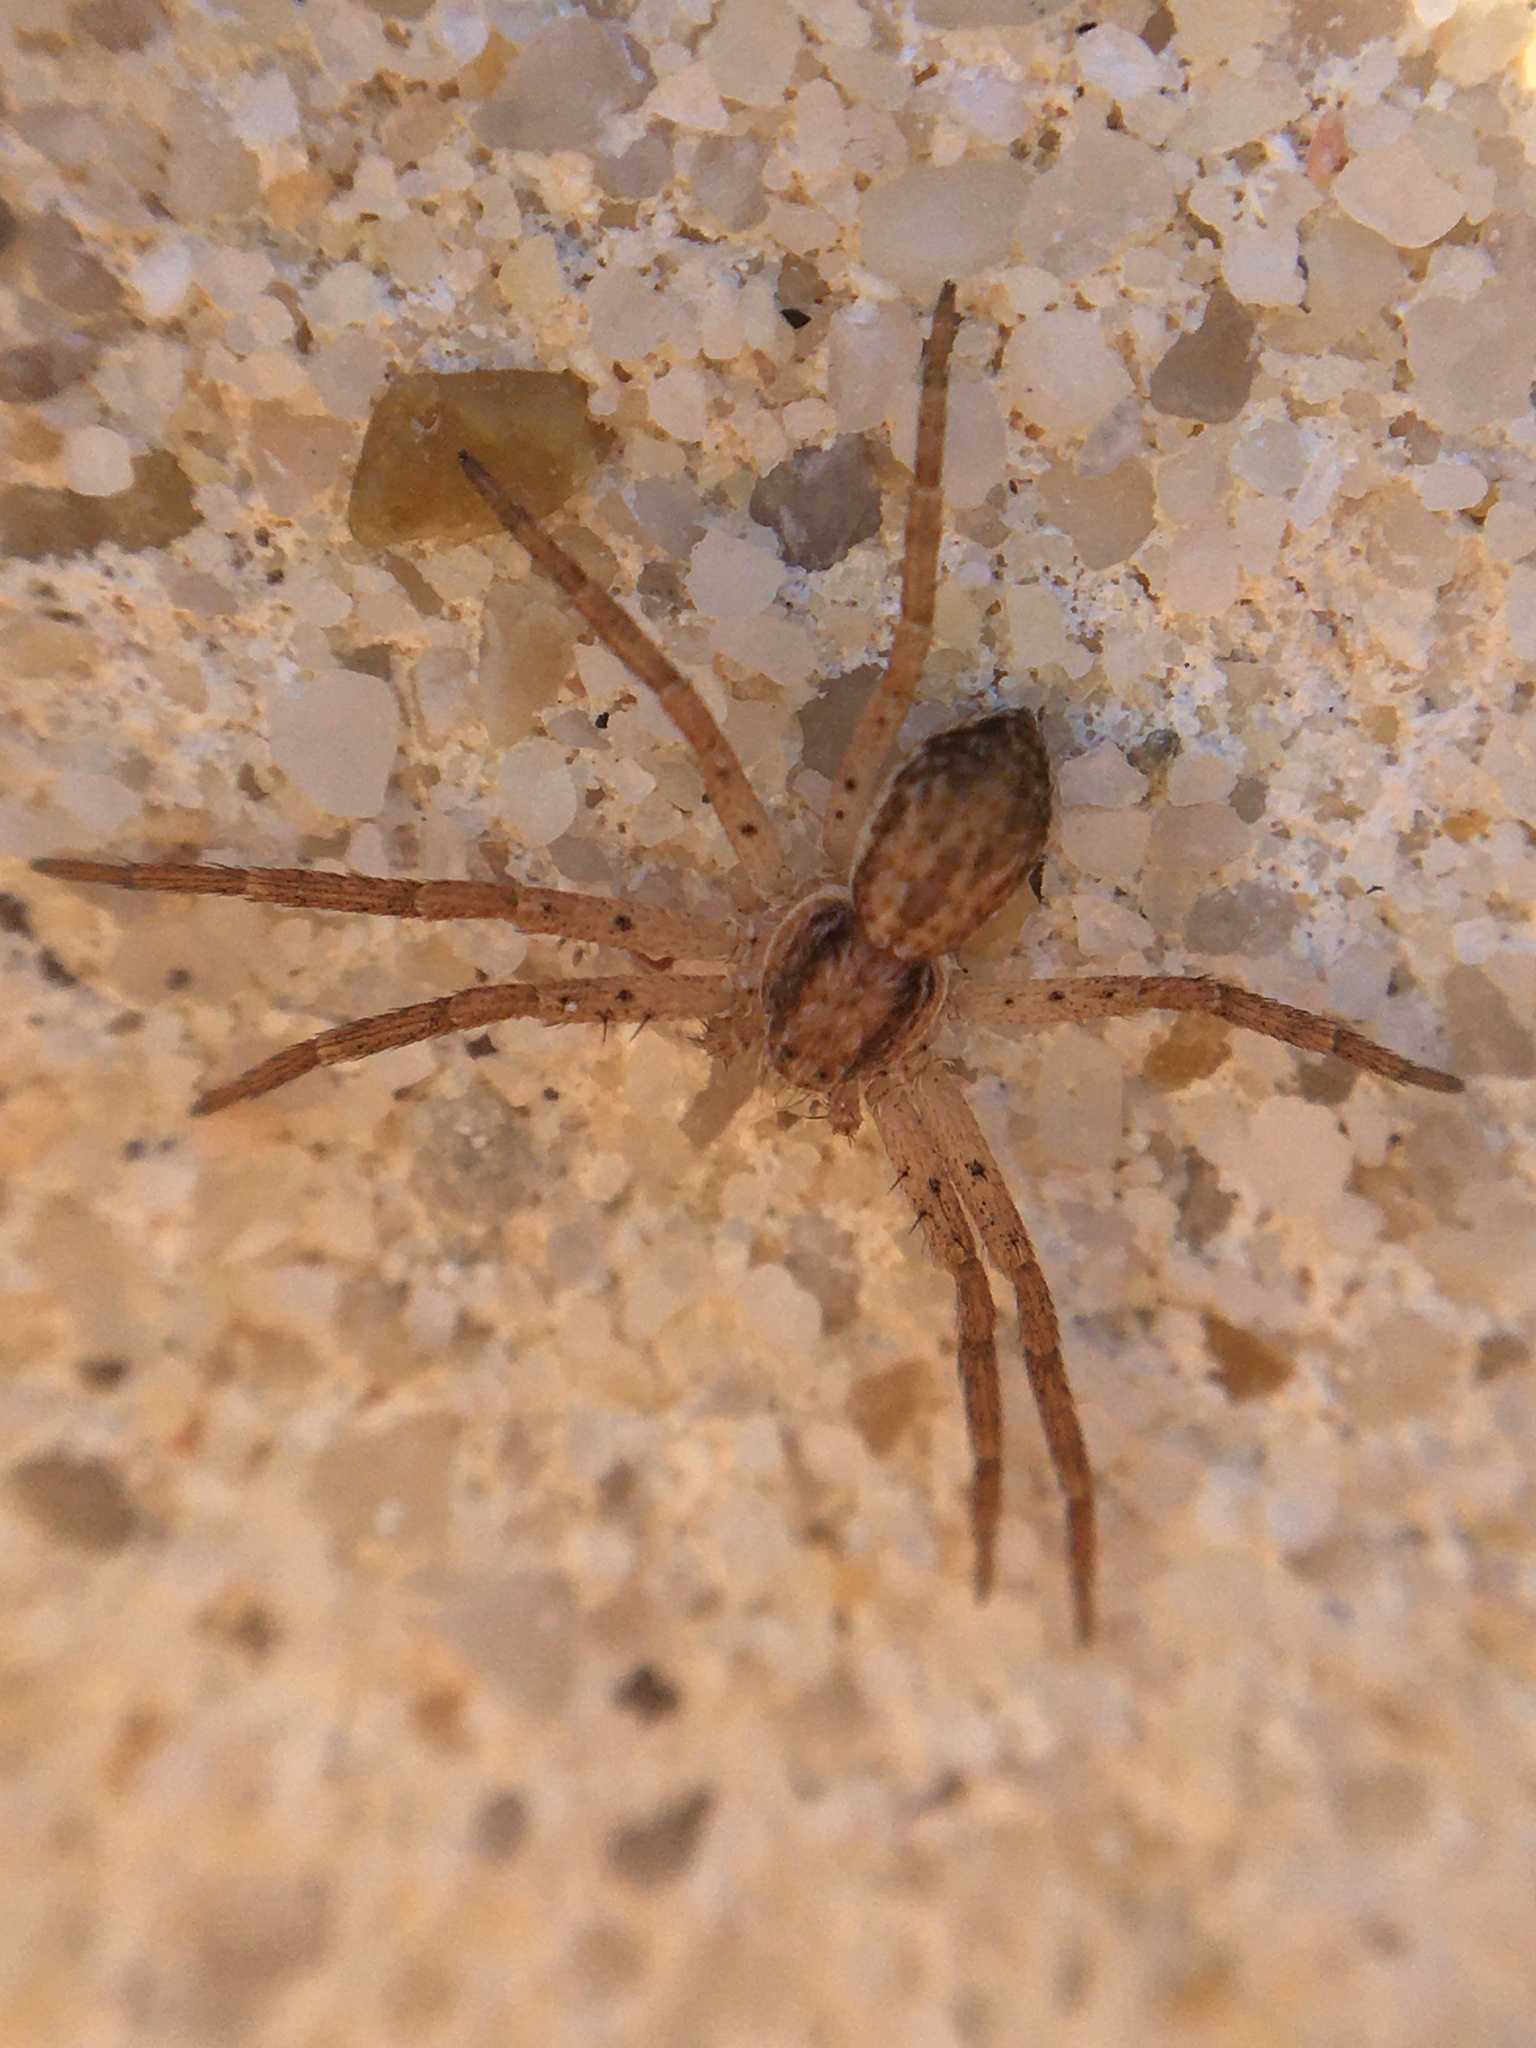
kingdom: Animalia
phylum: Arthropoda
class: Arachnida
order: Araneae
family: Philodromidae
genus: Philodromus
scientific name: Philodromus dispar
